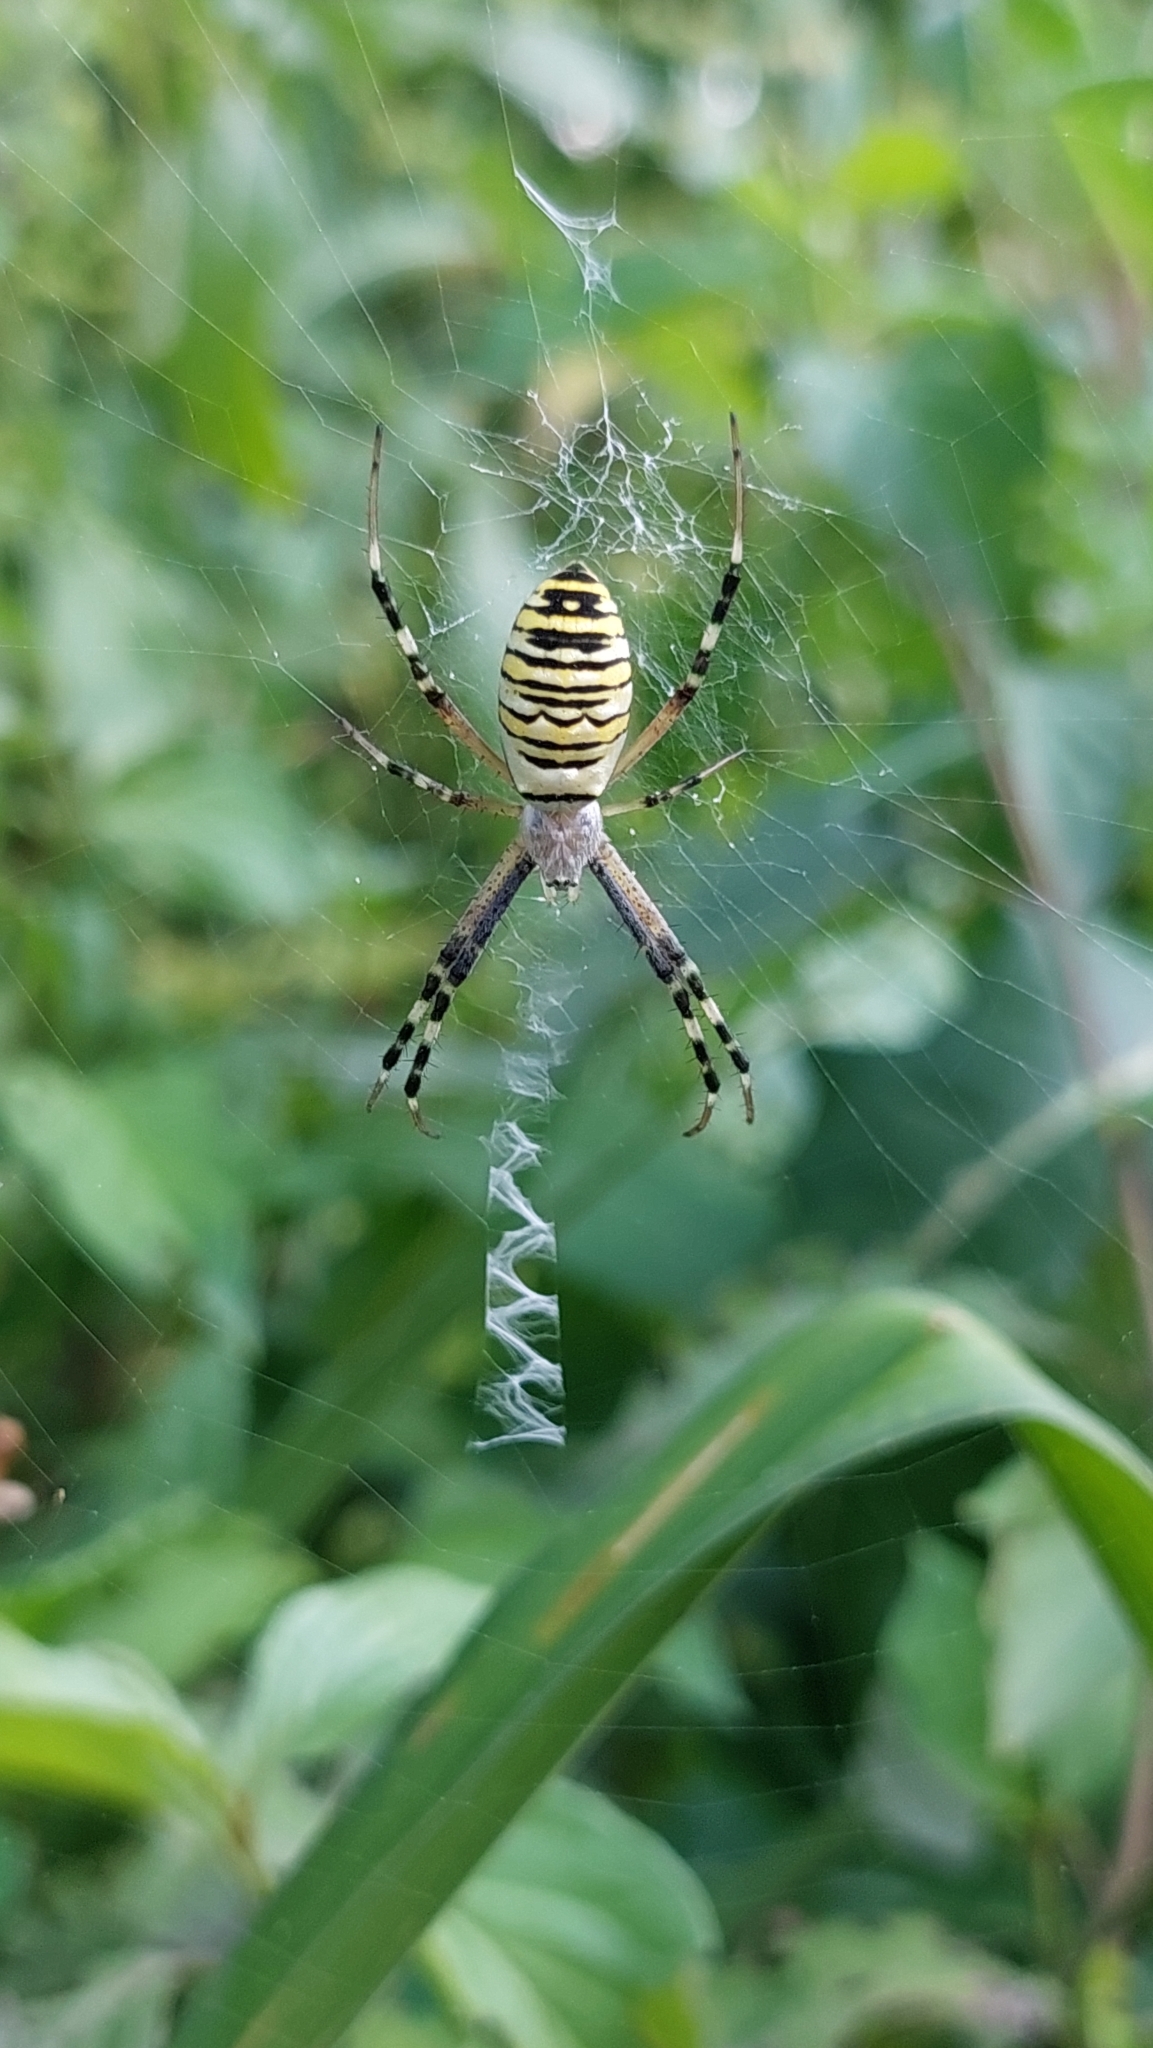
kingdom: Animalia
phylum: Arthropoda
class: Arachnida
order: Araneae
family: Araneidae
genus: Argiope
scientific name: Argiope bruennichi
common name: Wasp spider
